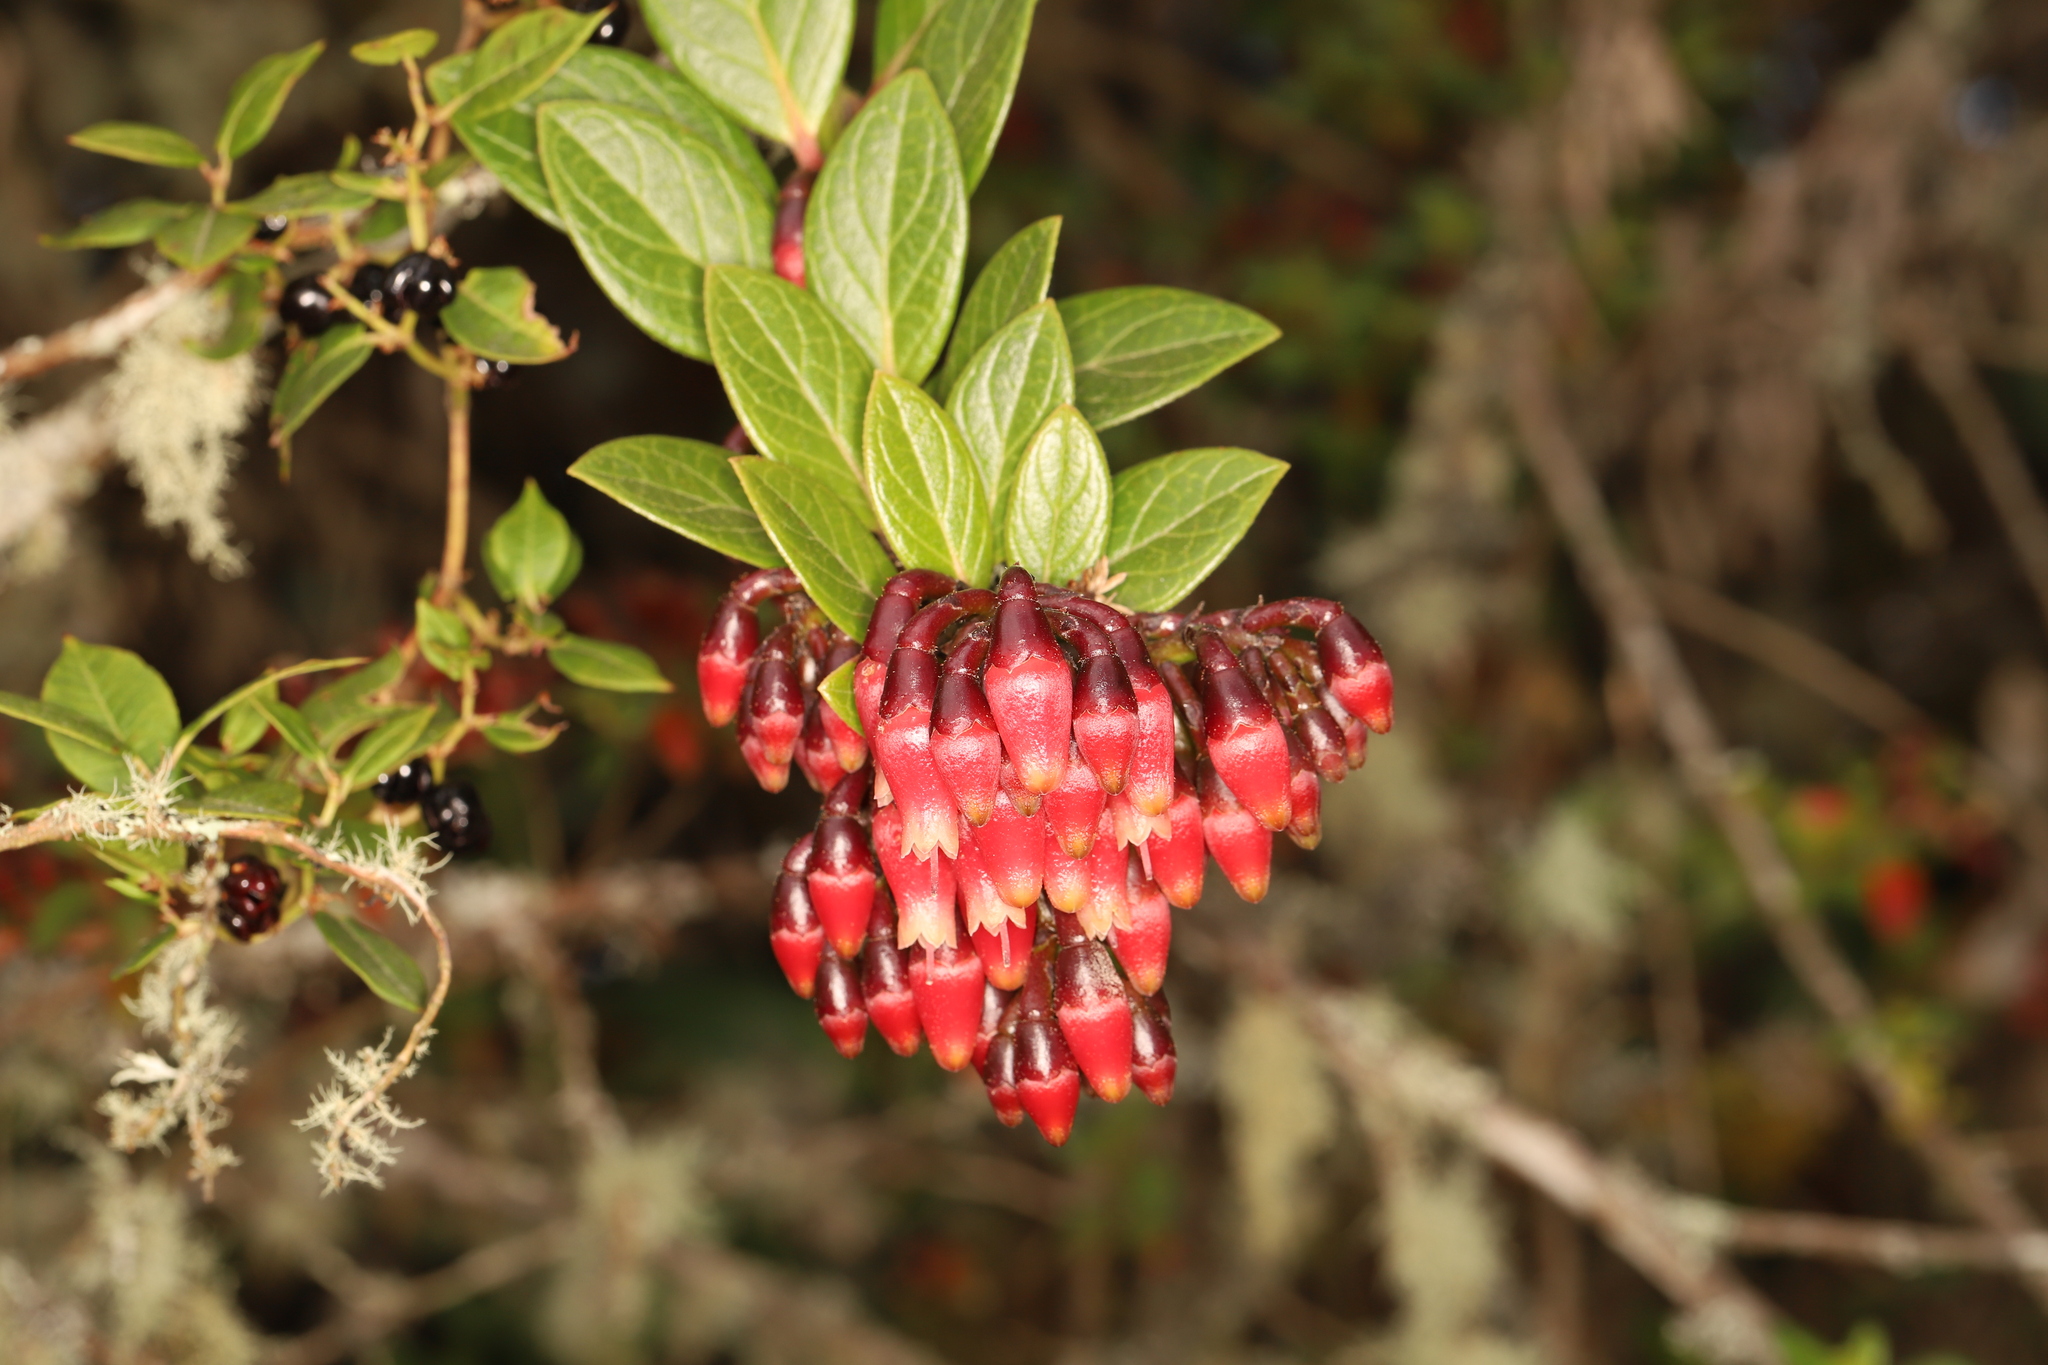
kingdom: Plantae
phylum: Tracheophyta
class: Magnoliopsida
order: Ericales
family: Ericaceae
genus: Macleania
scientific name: Macleania rupestris
